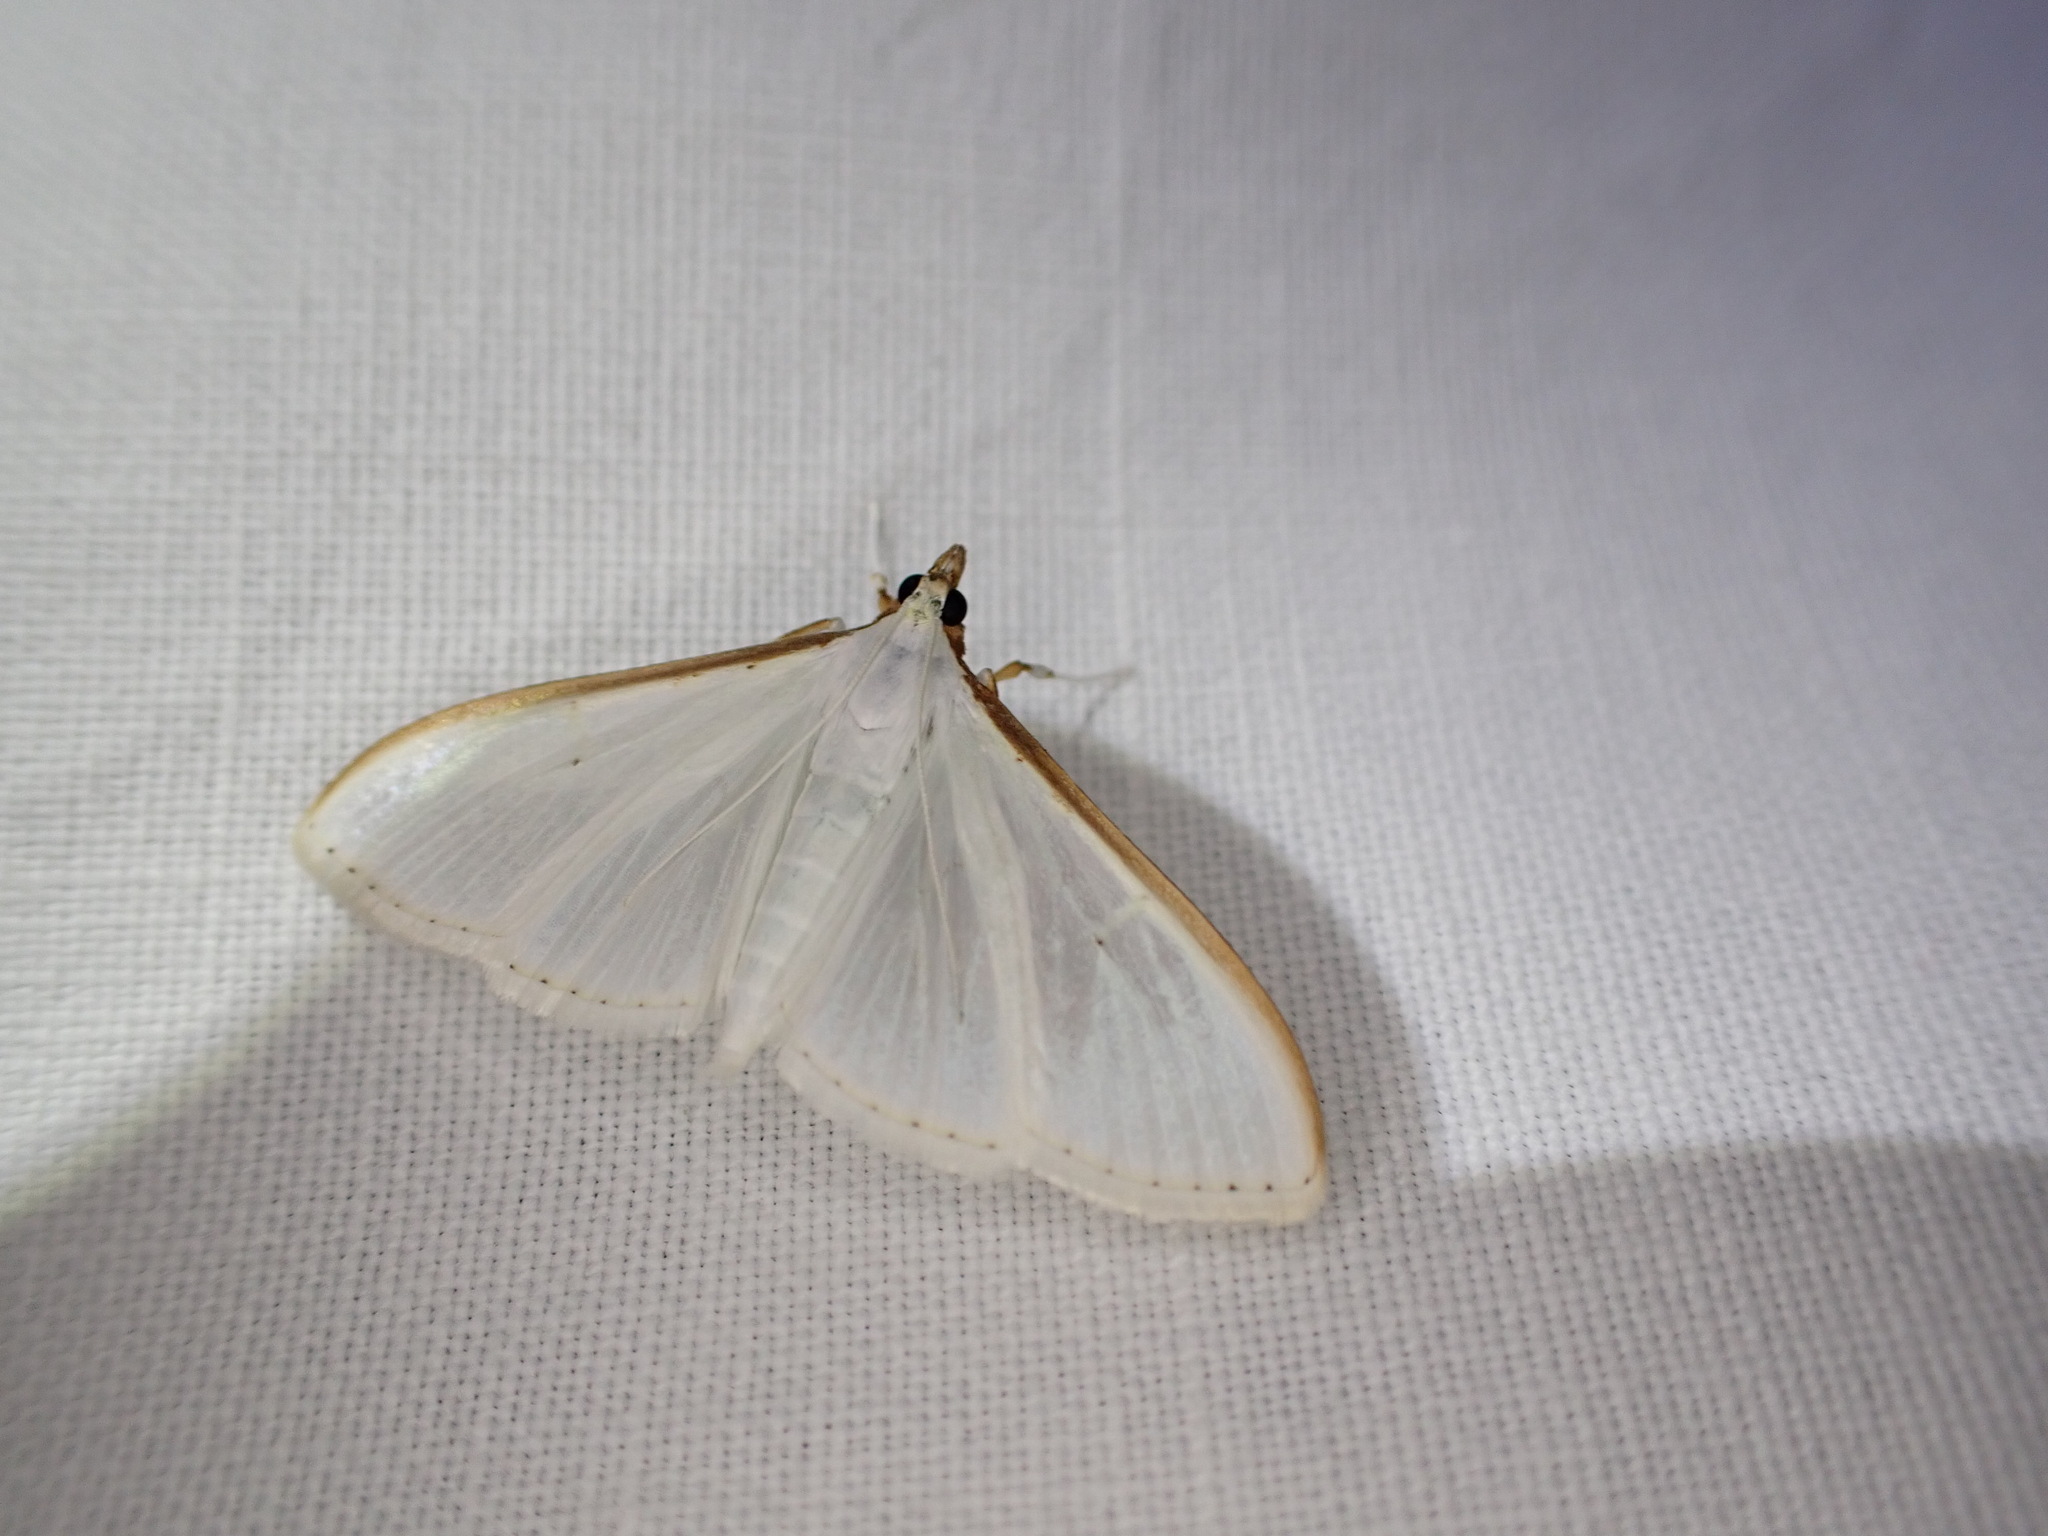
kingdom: Animalia
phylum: Arthropoda
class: Insecta
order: Lepidoptera
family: Crambidae
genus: Palpita
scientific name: Palpita vitrealis
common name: Olive-tree pearl
